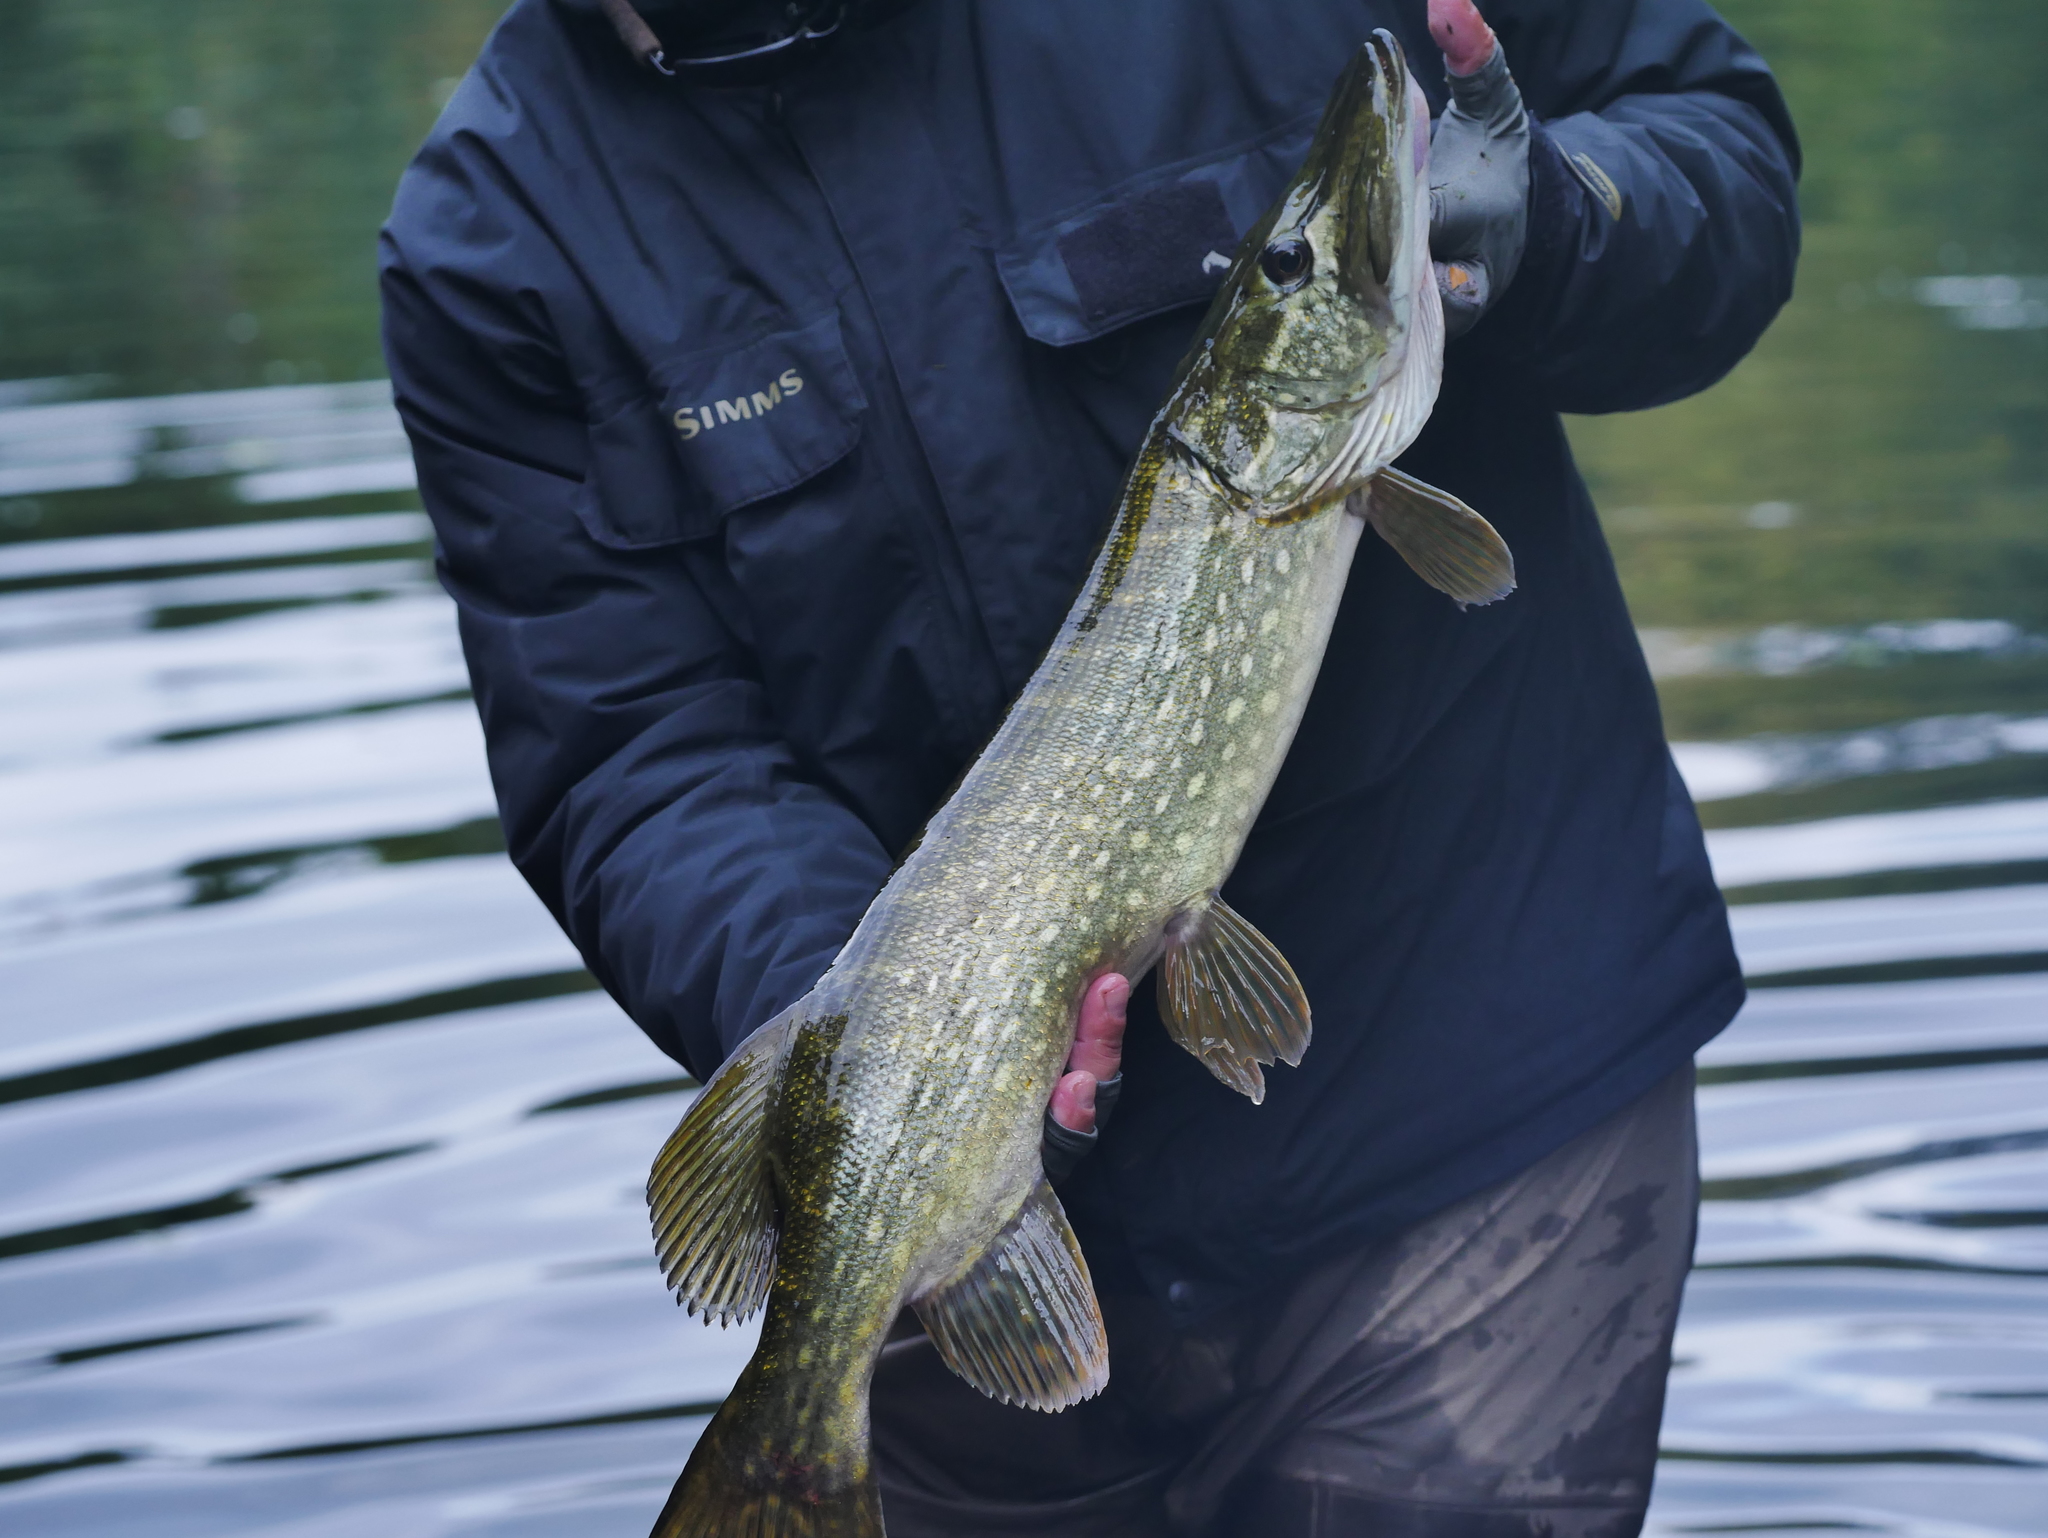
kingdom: Animalia
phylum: Chordata
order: Esociformes
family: Esocidae
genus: Esox
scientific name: Esox lucius
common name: Northern pike
